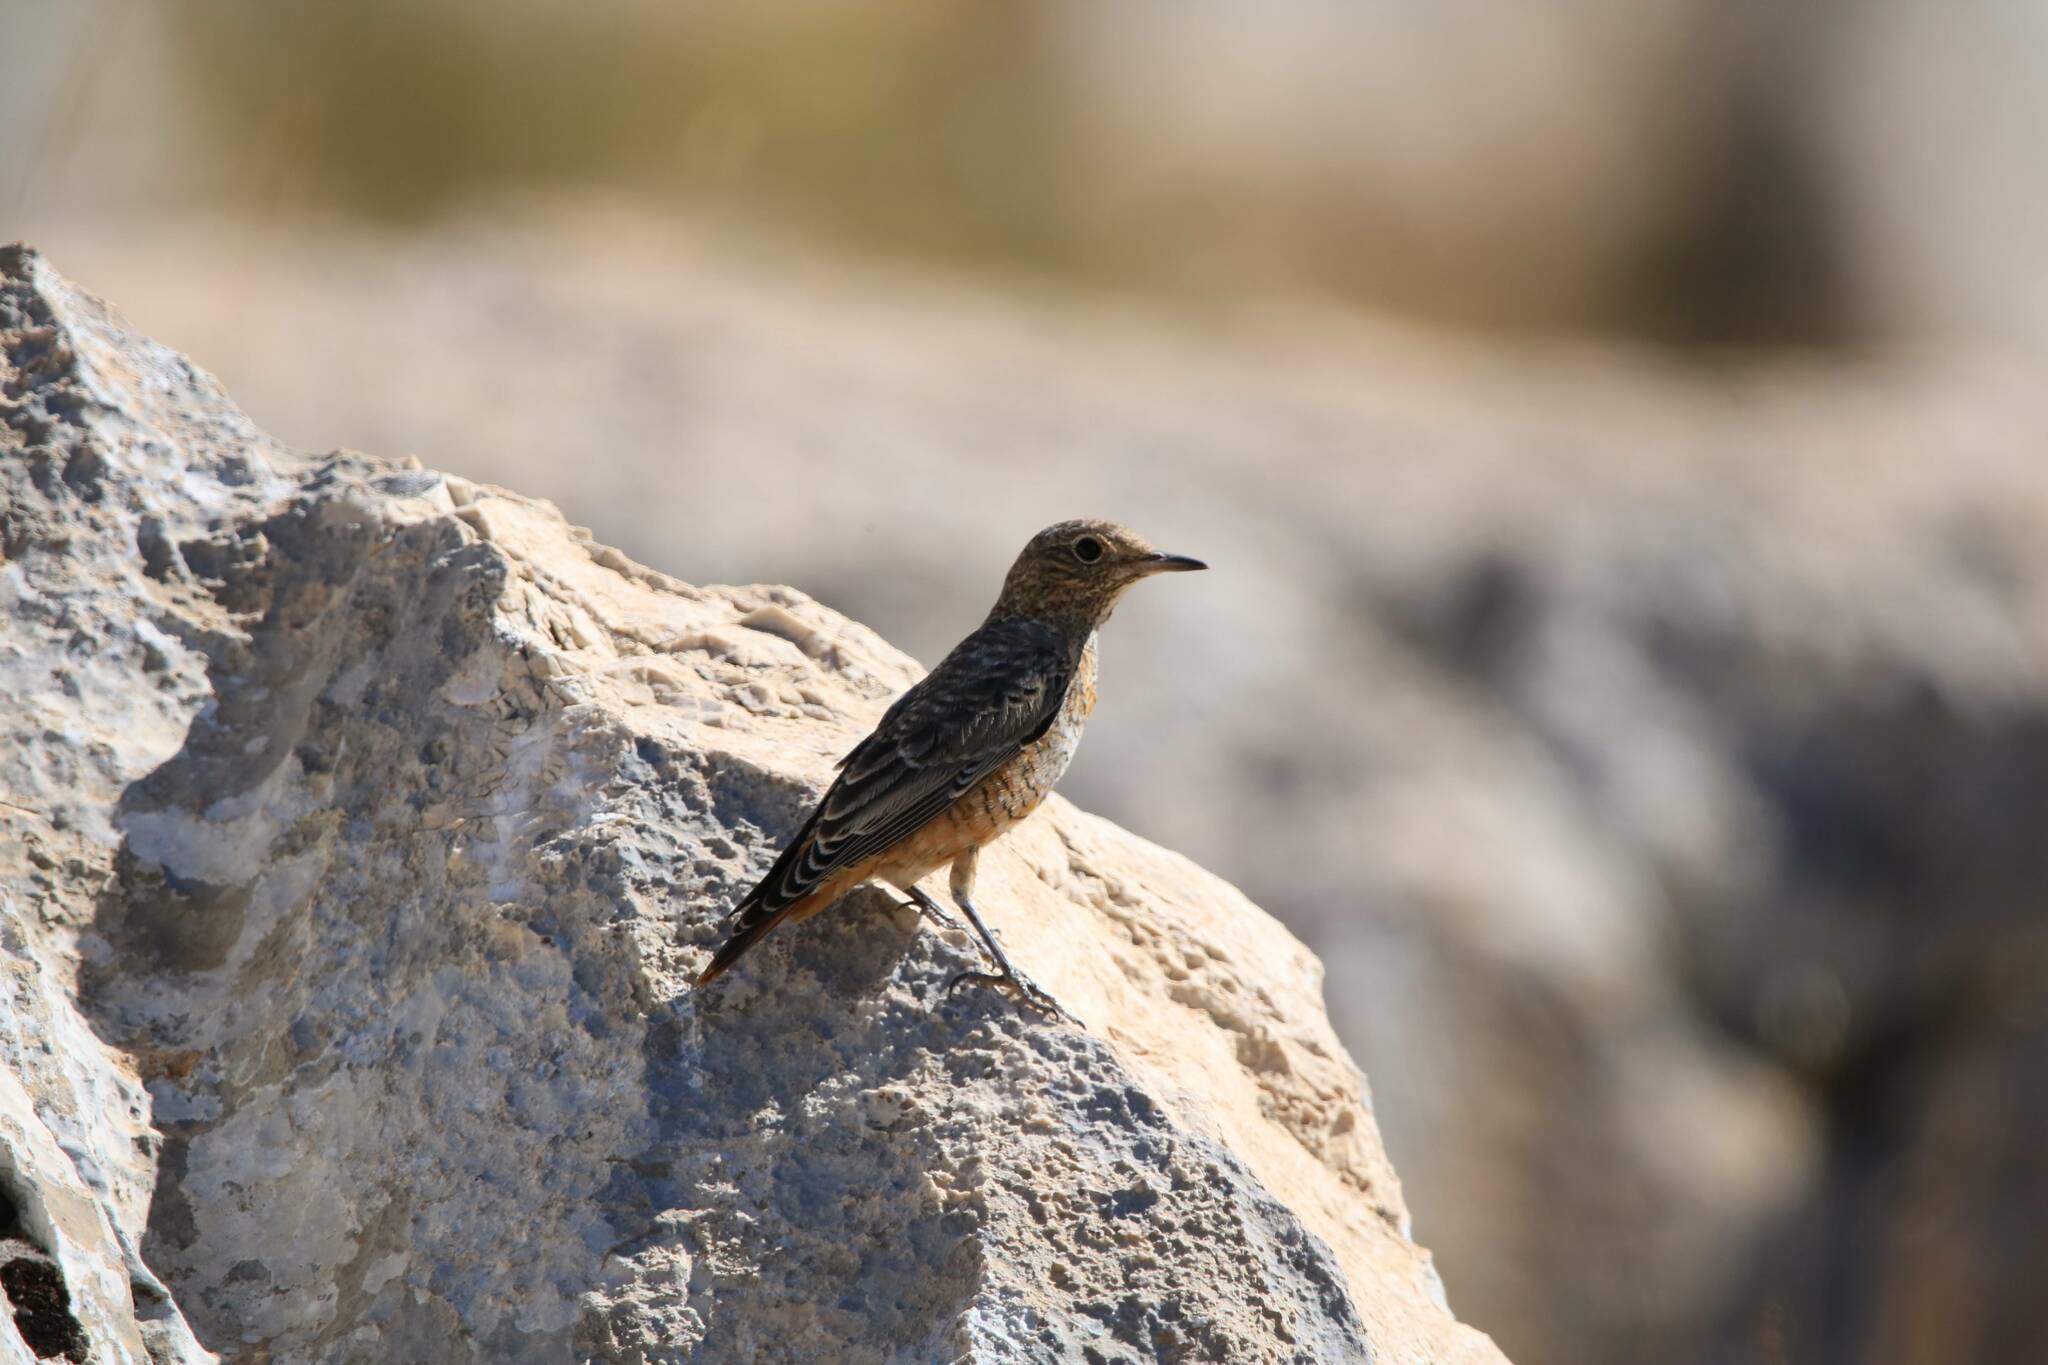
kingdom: Animalia
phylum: Chordata
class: Aves
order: Passeriformes
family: Muscicapidae
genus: Monticola
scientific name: Monticola saxatilis
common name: Rufous-tailed rock thrush
